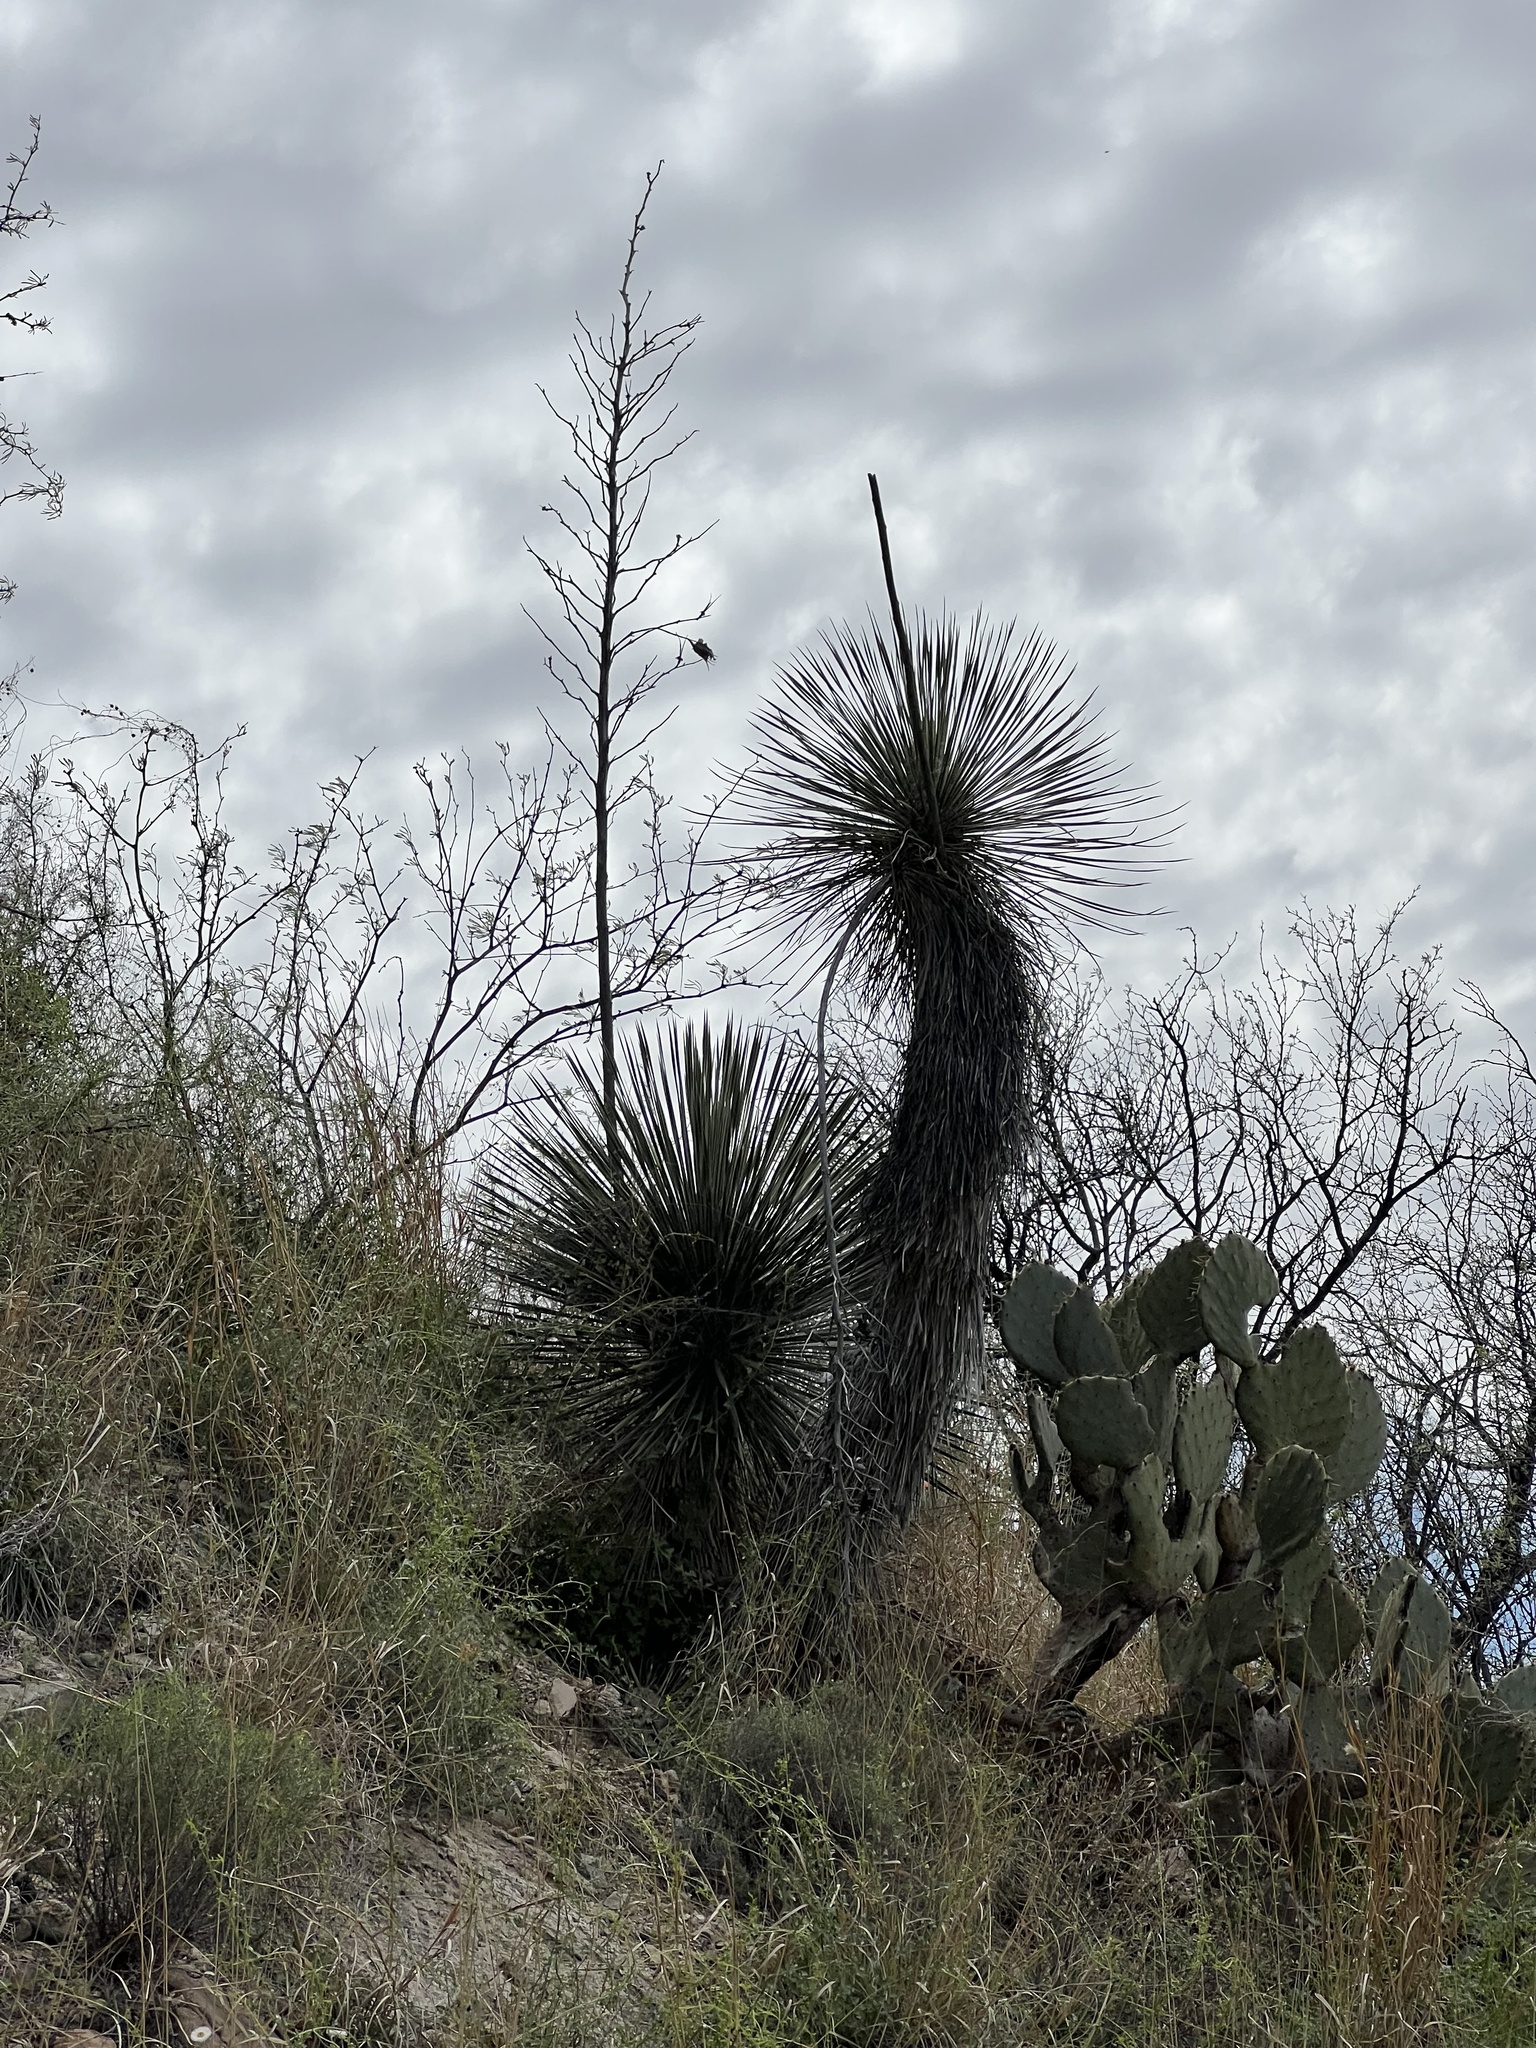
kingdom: Plantae
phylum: Tracheophyta
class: Liliopsida
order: Asparagales
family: Asparagaceae
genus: Yucca
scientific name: Yucca elata
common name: Palmella
